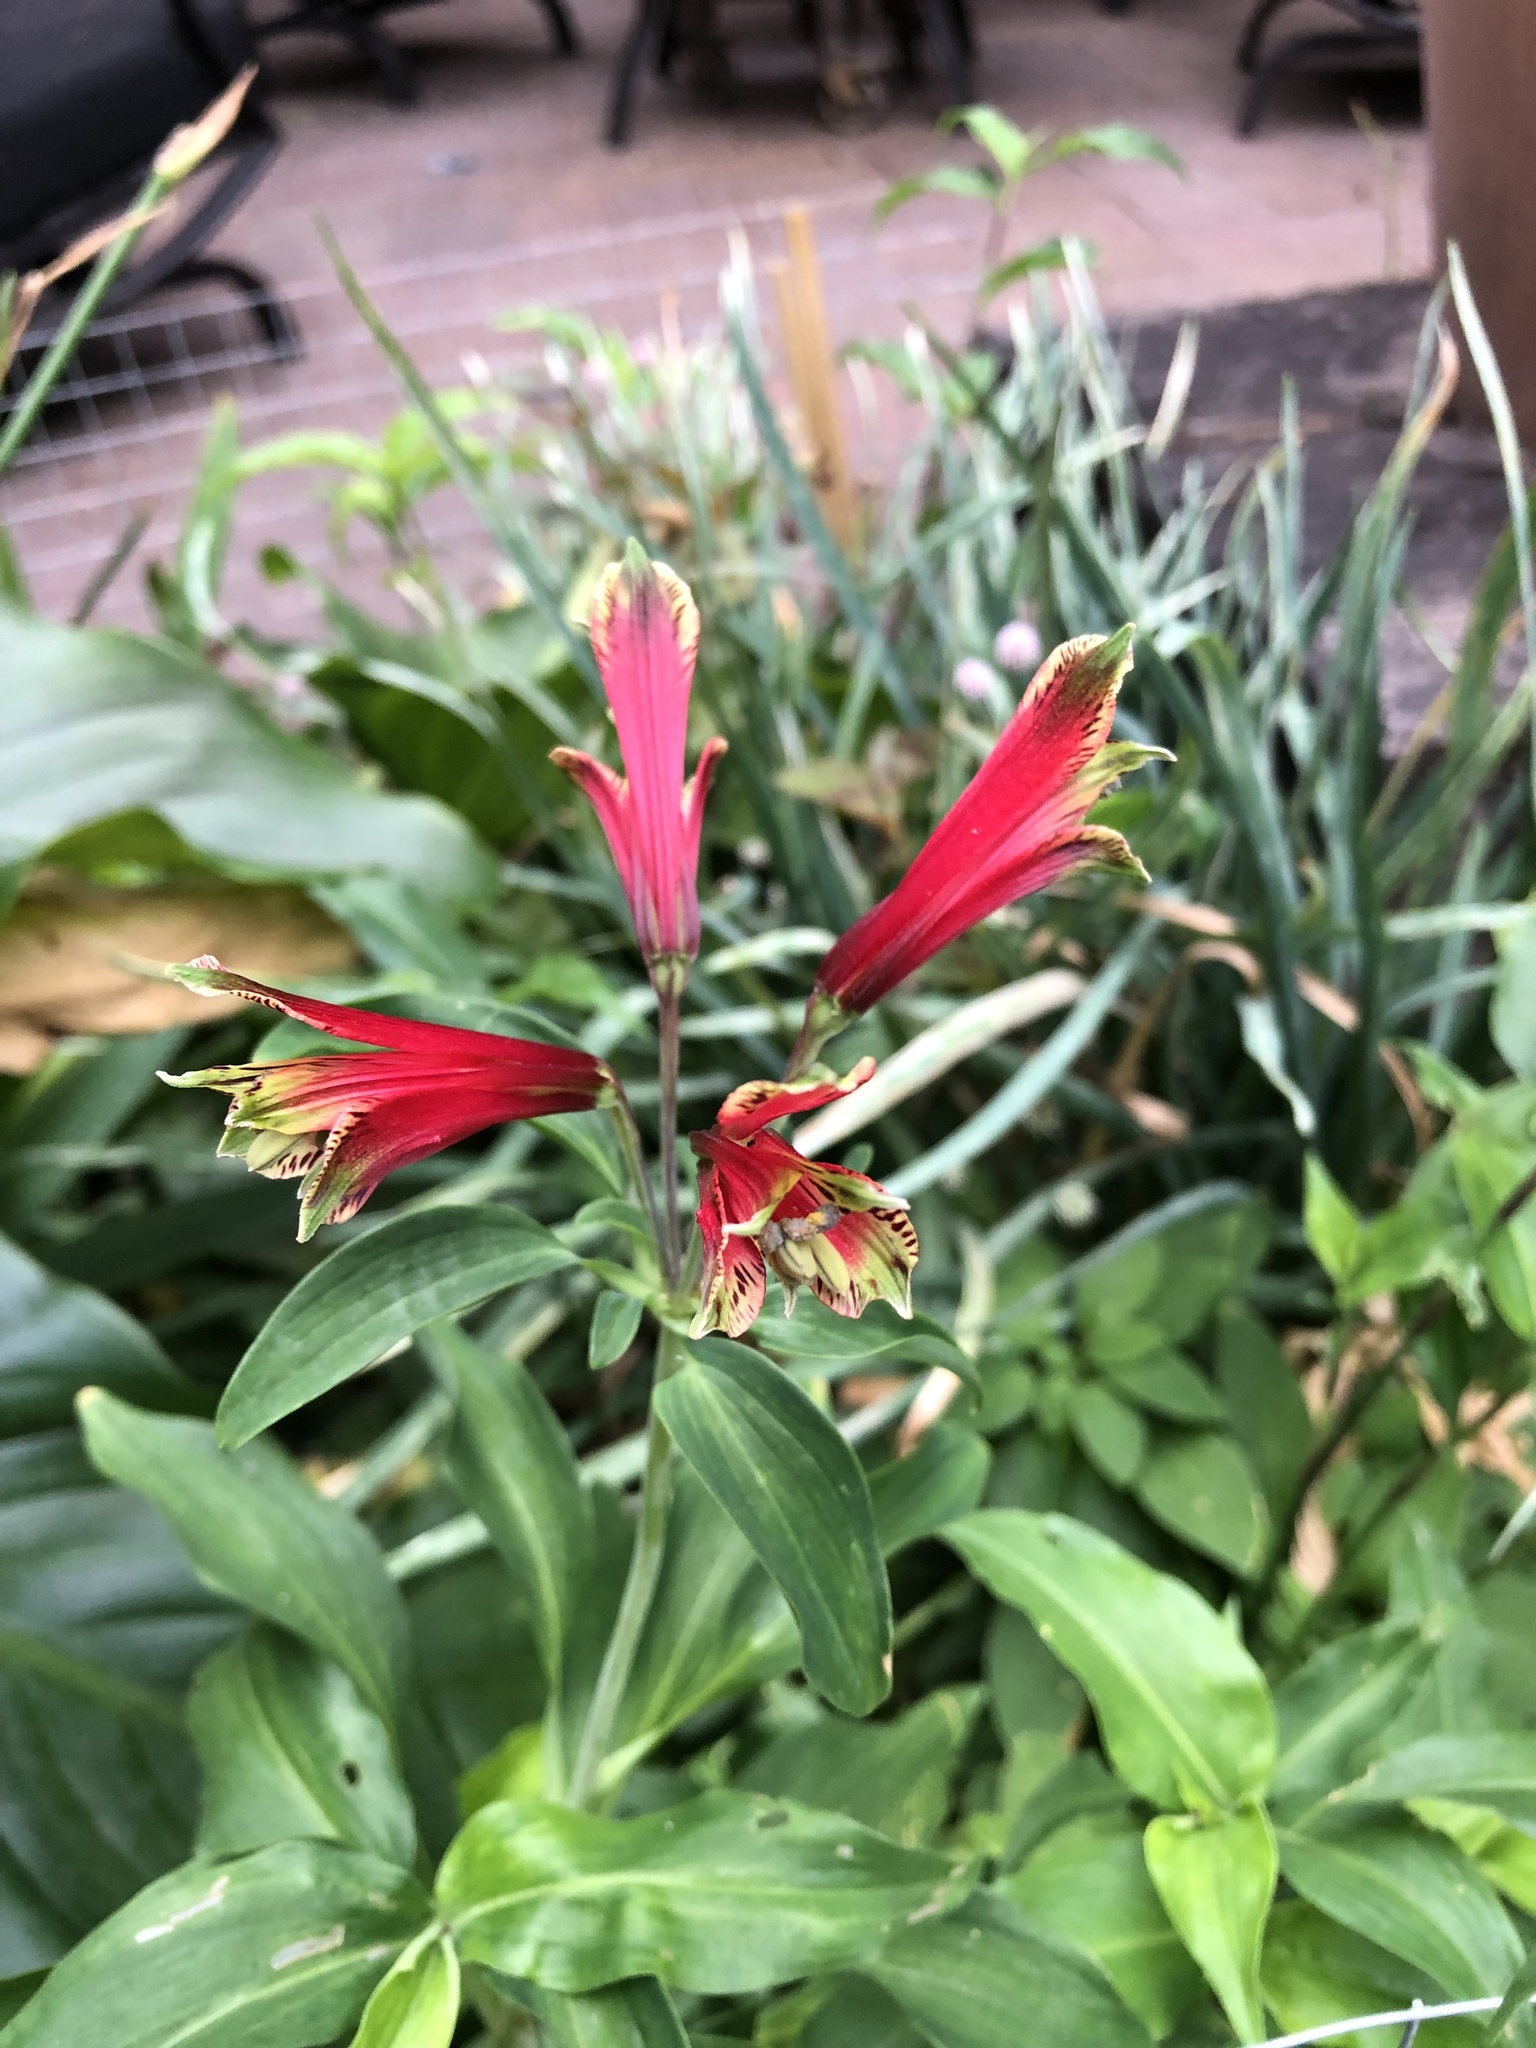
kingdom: Plantae
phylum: Tracheophyta
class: Liliopsida
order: Liliales
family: Alstroemeriaceae
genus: Alstroemeria
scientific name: Alstroemeria psittacina
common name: Peruvian-lily
